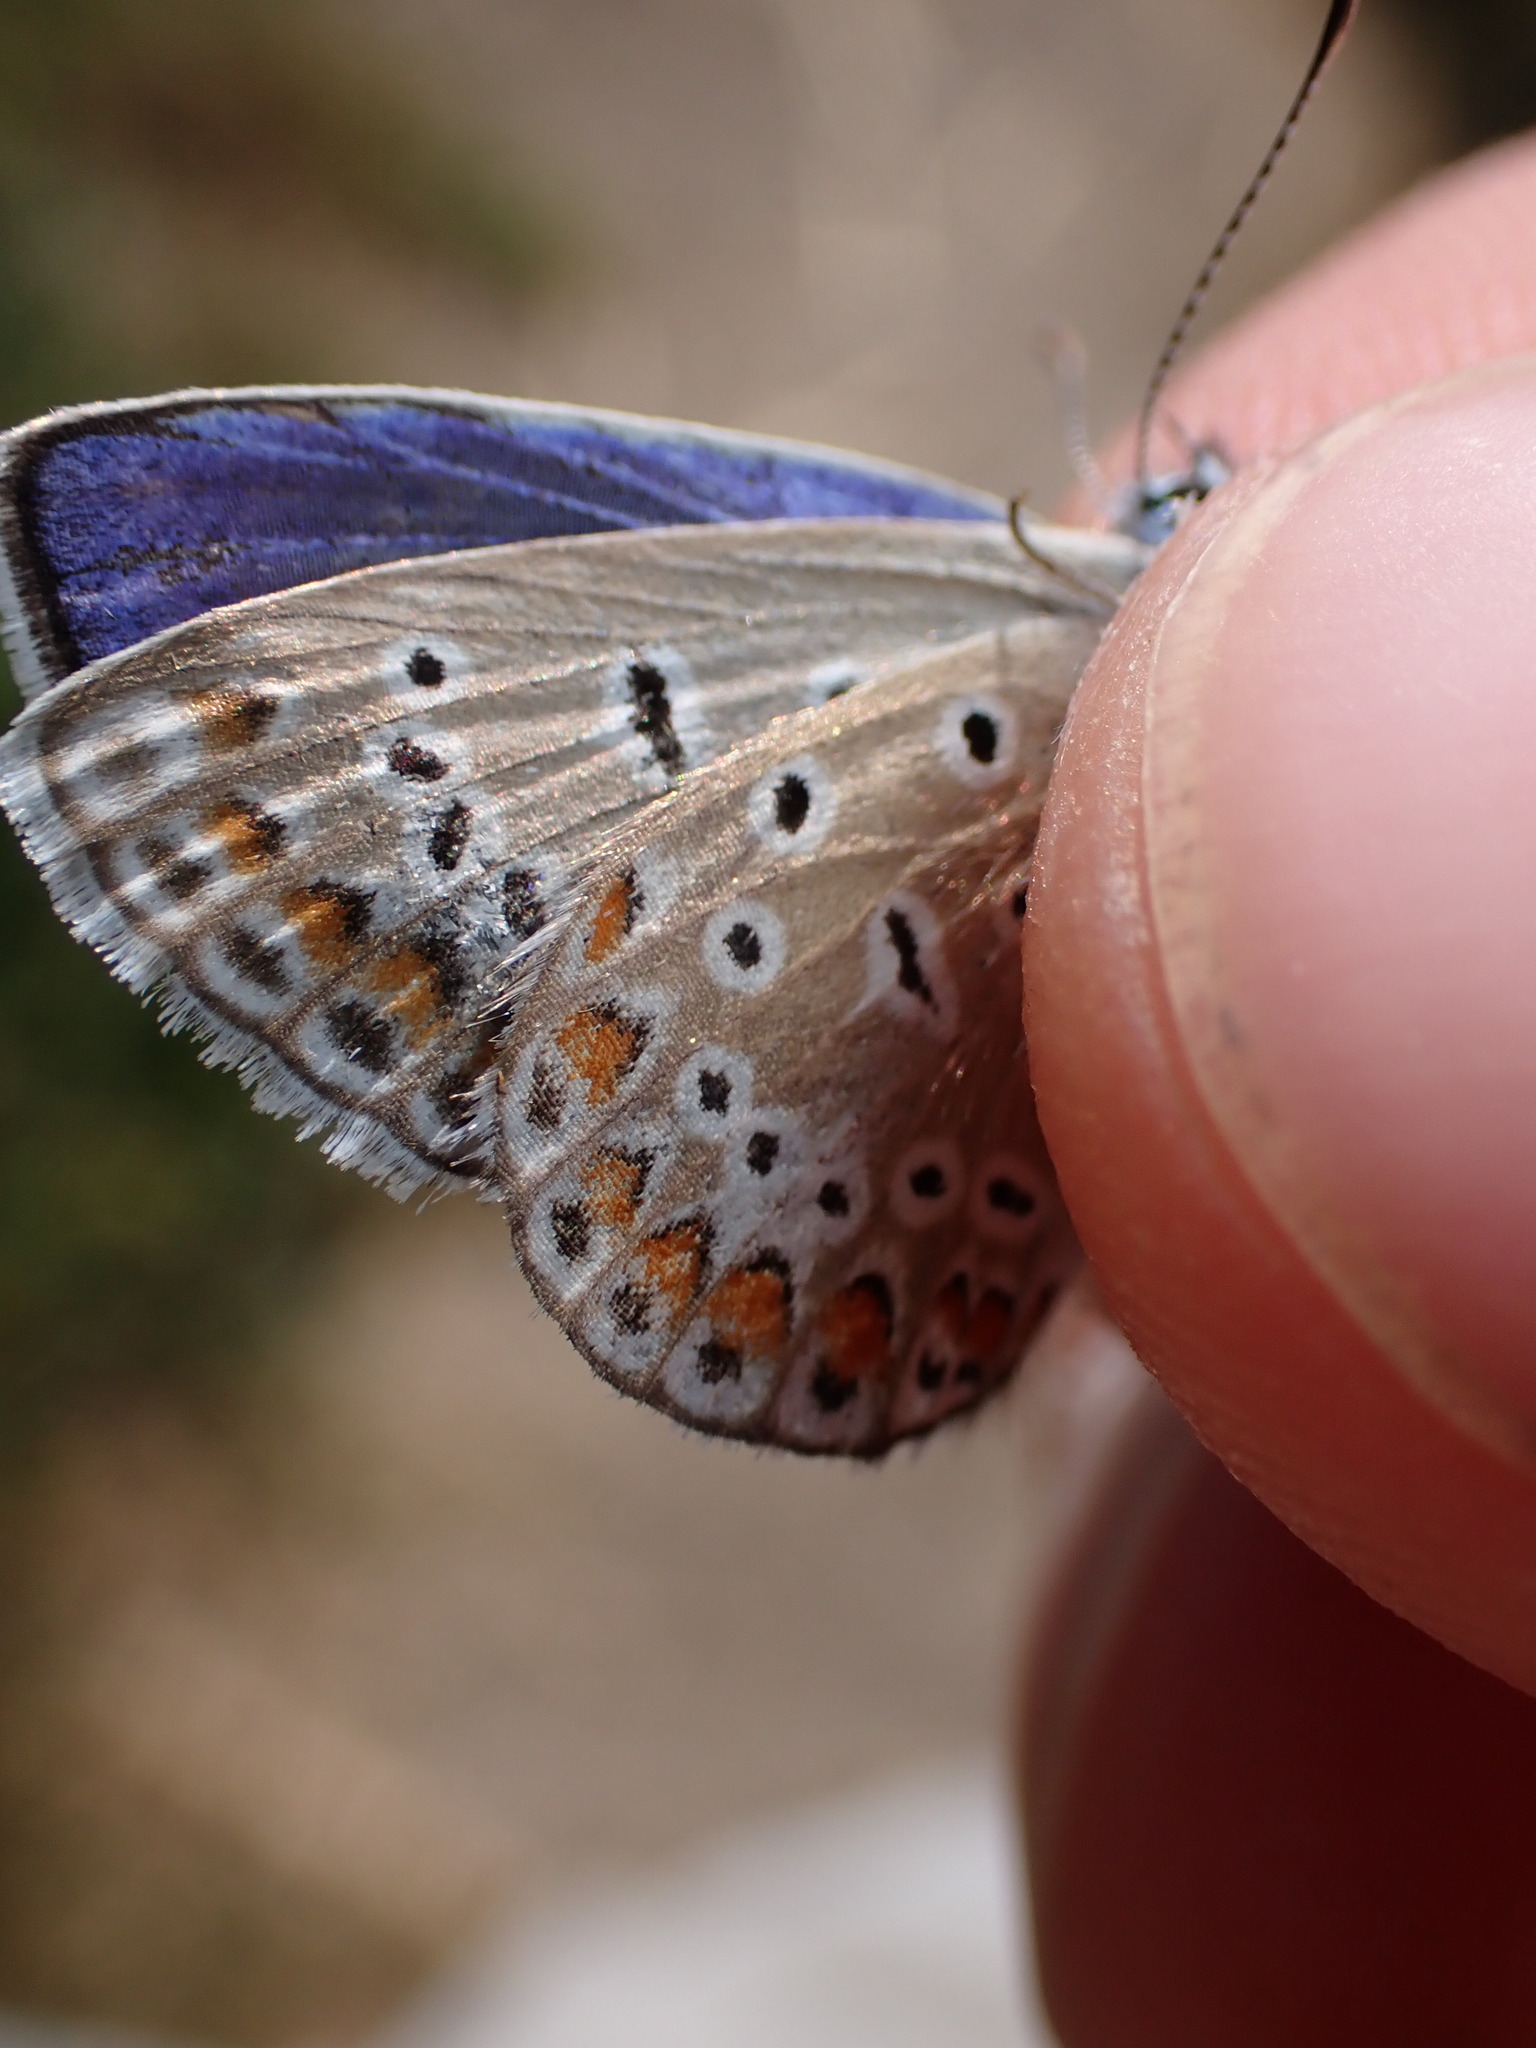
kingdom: Animalia
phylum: Arthropoda
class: Insecta
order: Lepidoptera
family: Lycaenidae
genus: Polyommatus
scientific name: Polyommatus icarus
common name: Common blue
